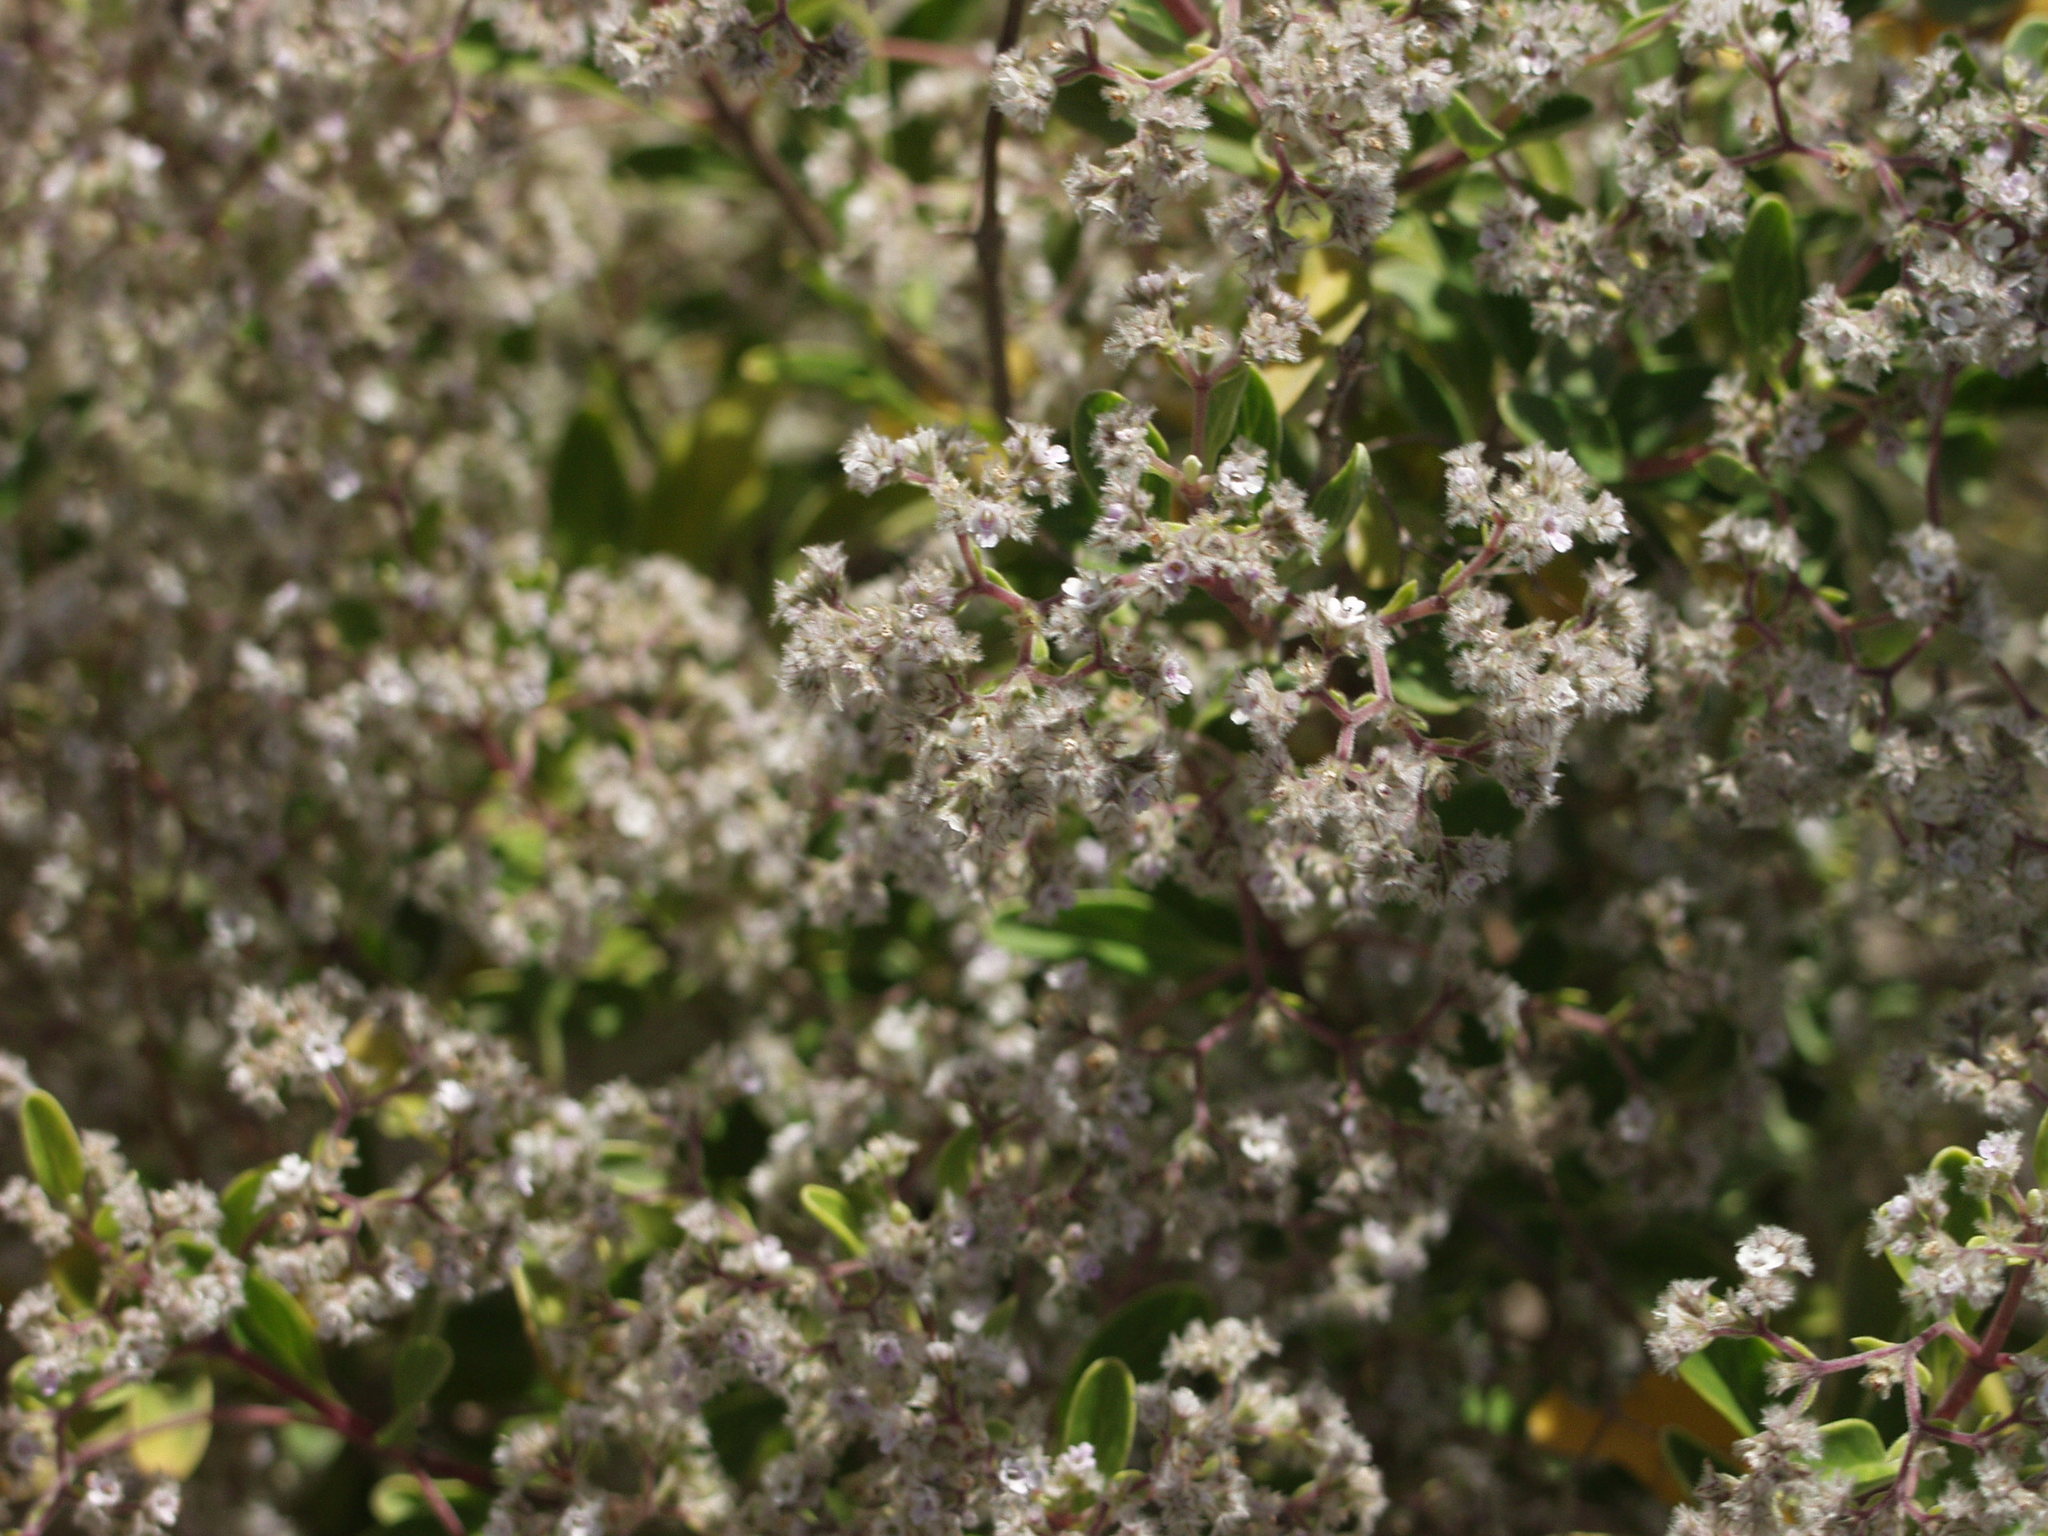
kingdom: Plantae
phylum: Tracheophyta
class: Magnoliopsida
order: Lamiales
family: Lamiaceae
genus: Bystropogon
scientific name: Bystropogon origanifolius
